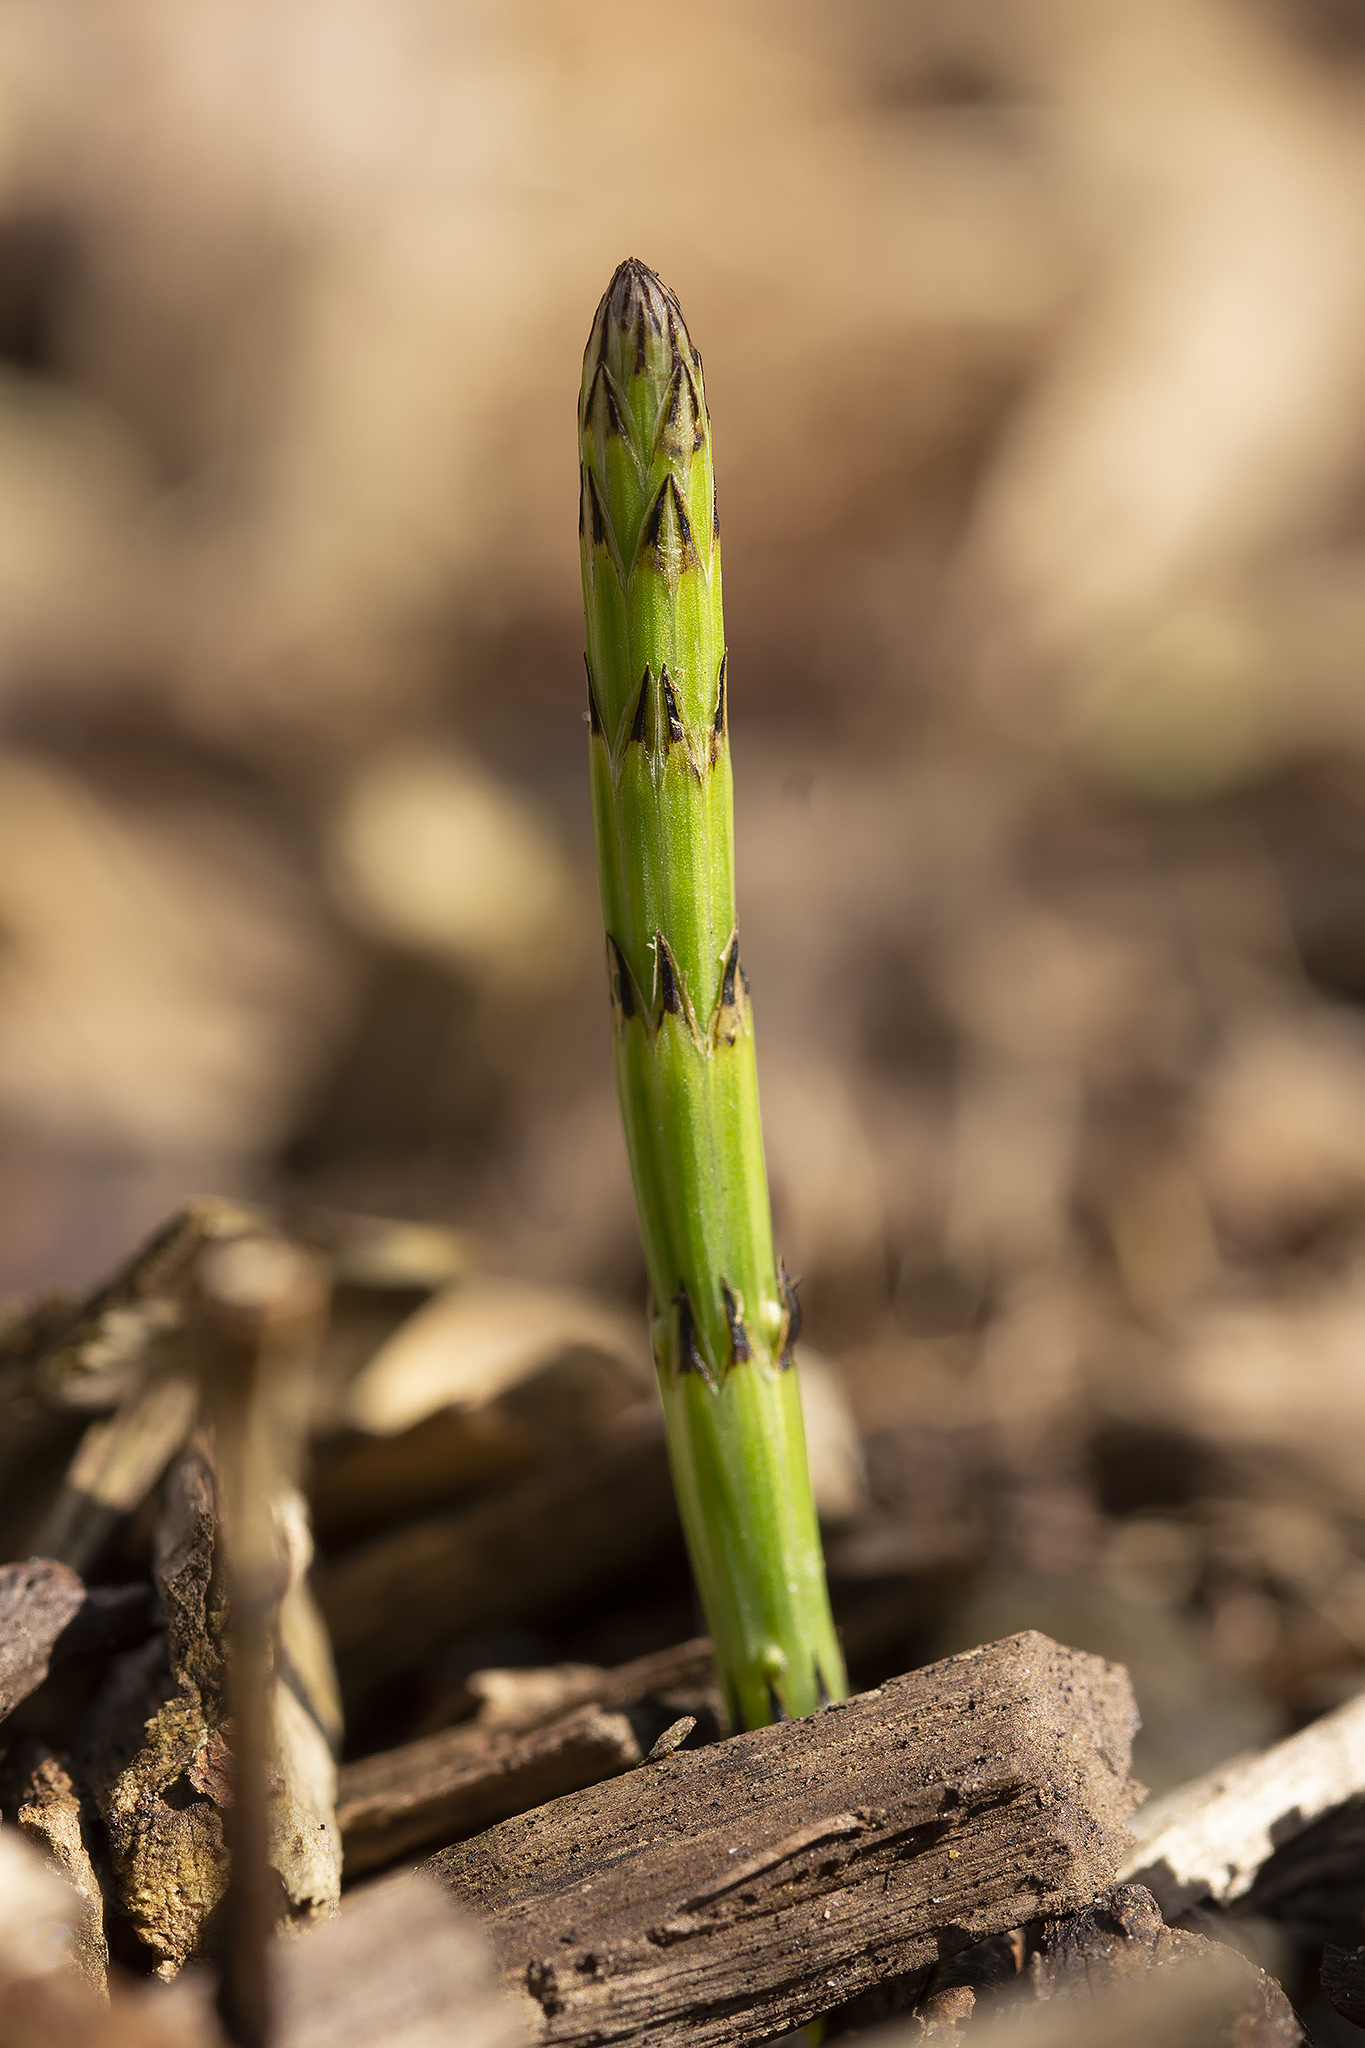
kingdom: Plantae
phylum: Tracheophyta
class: Polypodiopsida
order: Equisetales
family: Equisetaceae
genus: Equisetum
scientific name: Equisetum palustre
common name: Marsh horsetail
